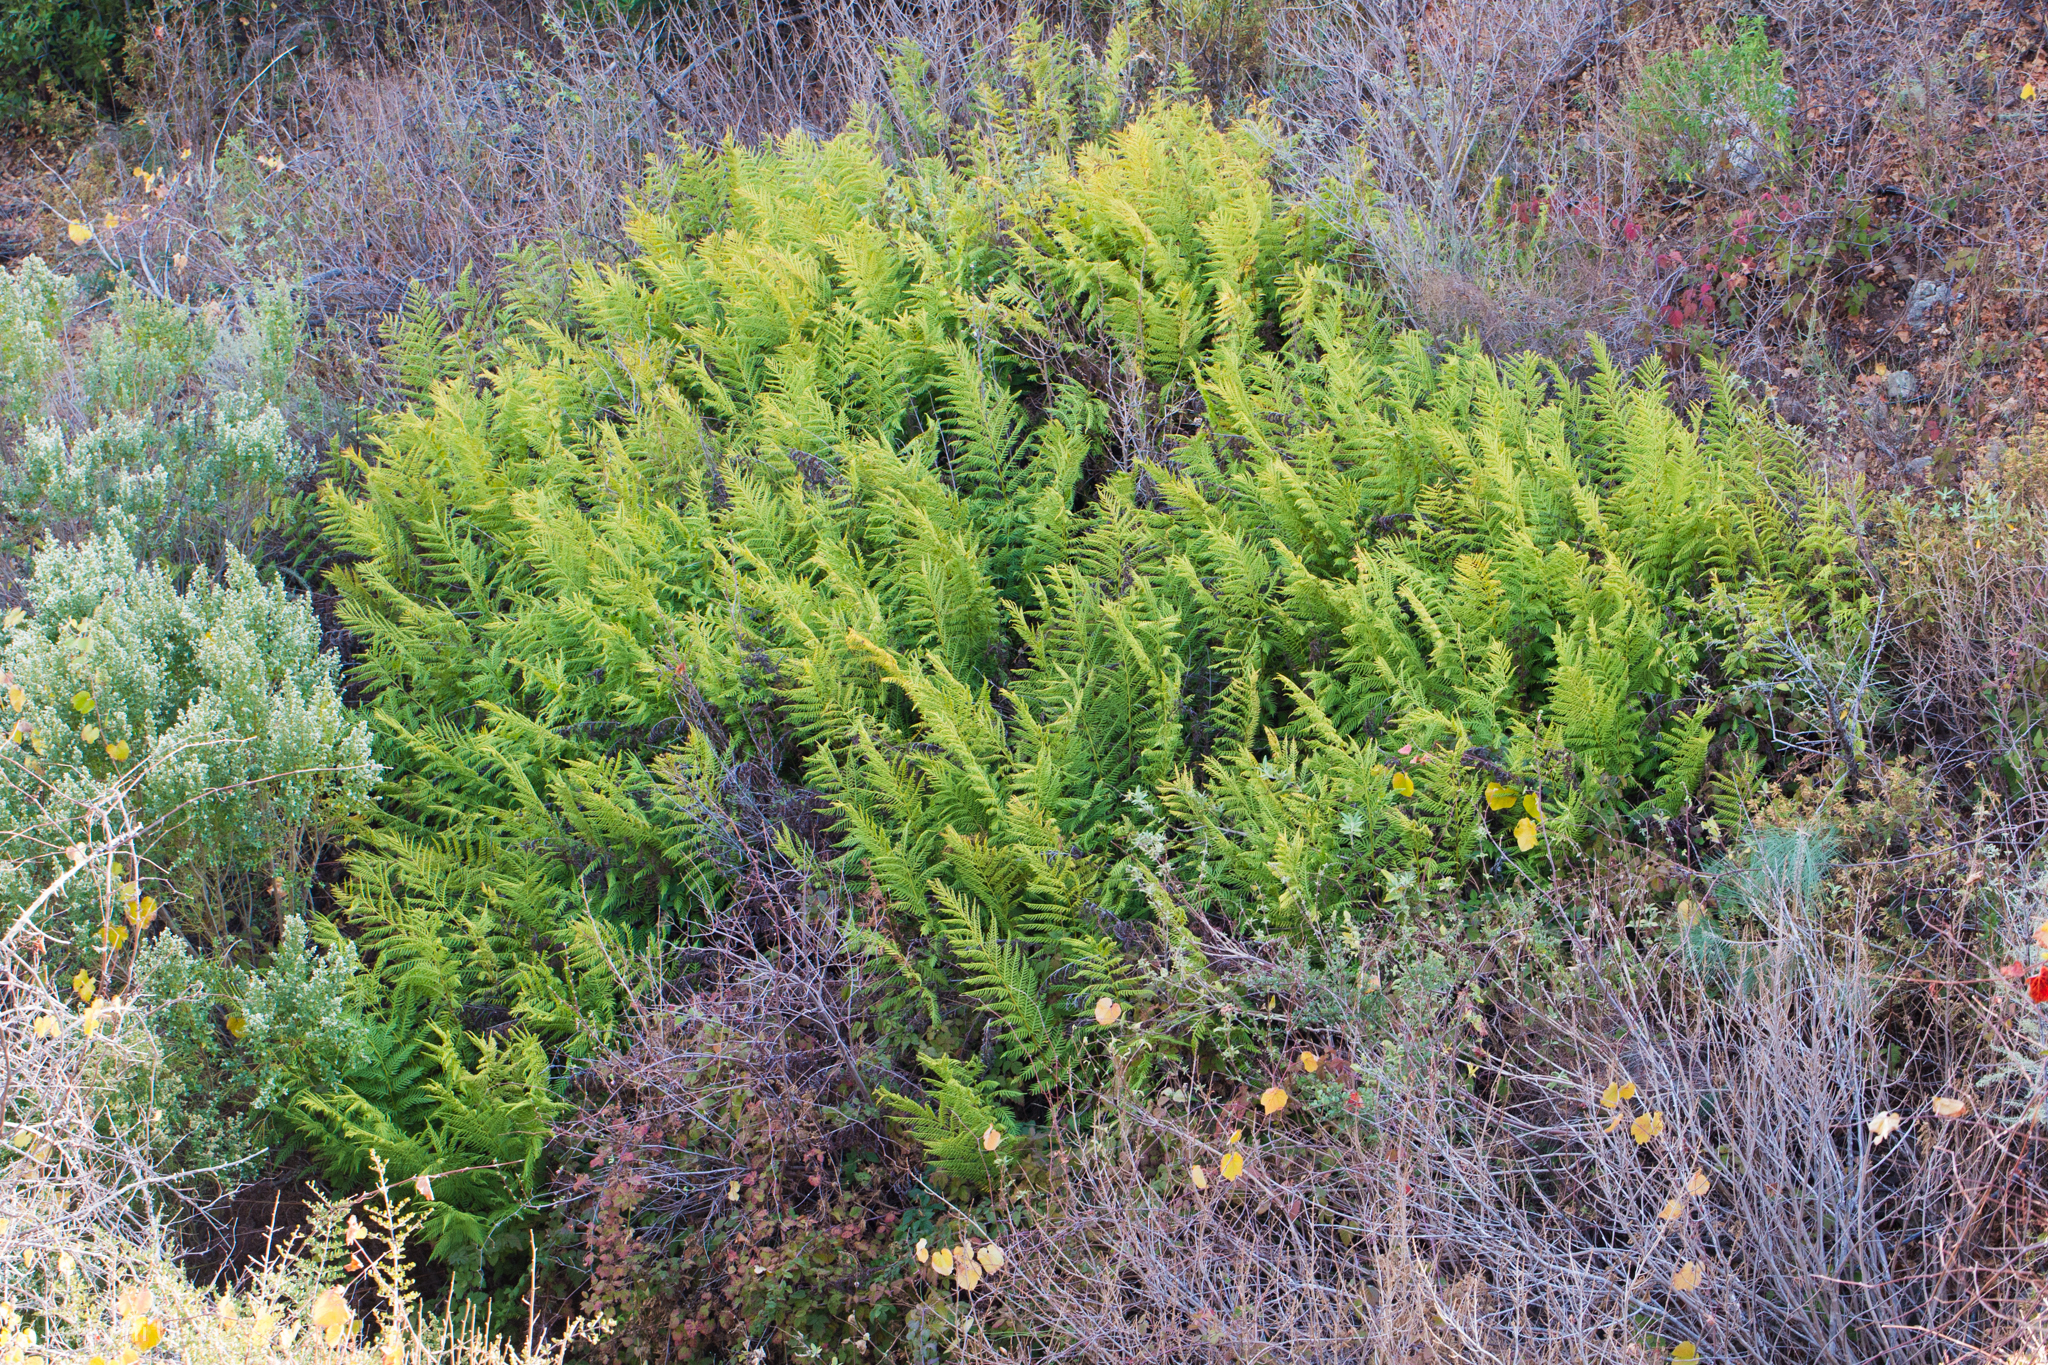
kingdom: Plantae
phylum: Tracheophyta
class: Polypodiopsida
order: Polypodiales
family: Blechnaceae
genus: Woodwardia
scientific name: Woodwardia fimbriata
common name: Giant chain fern
